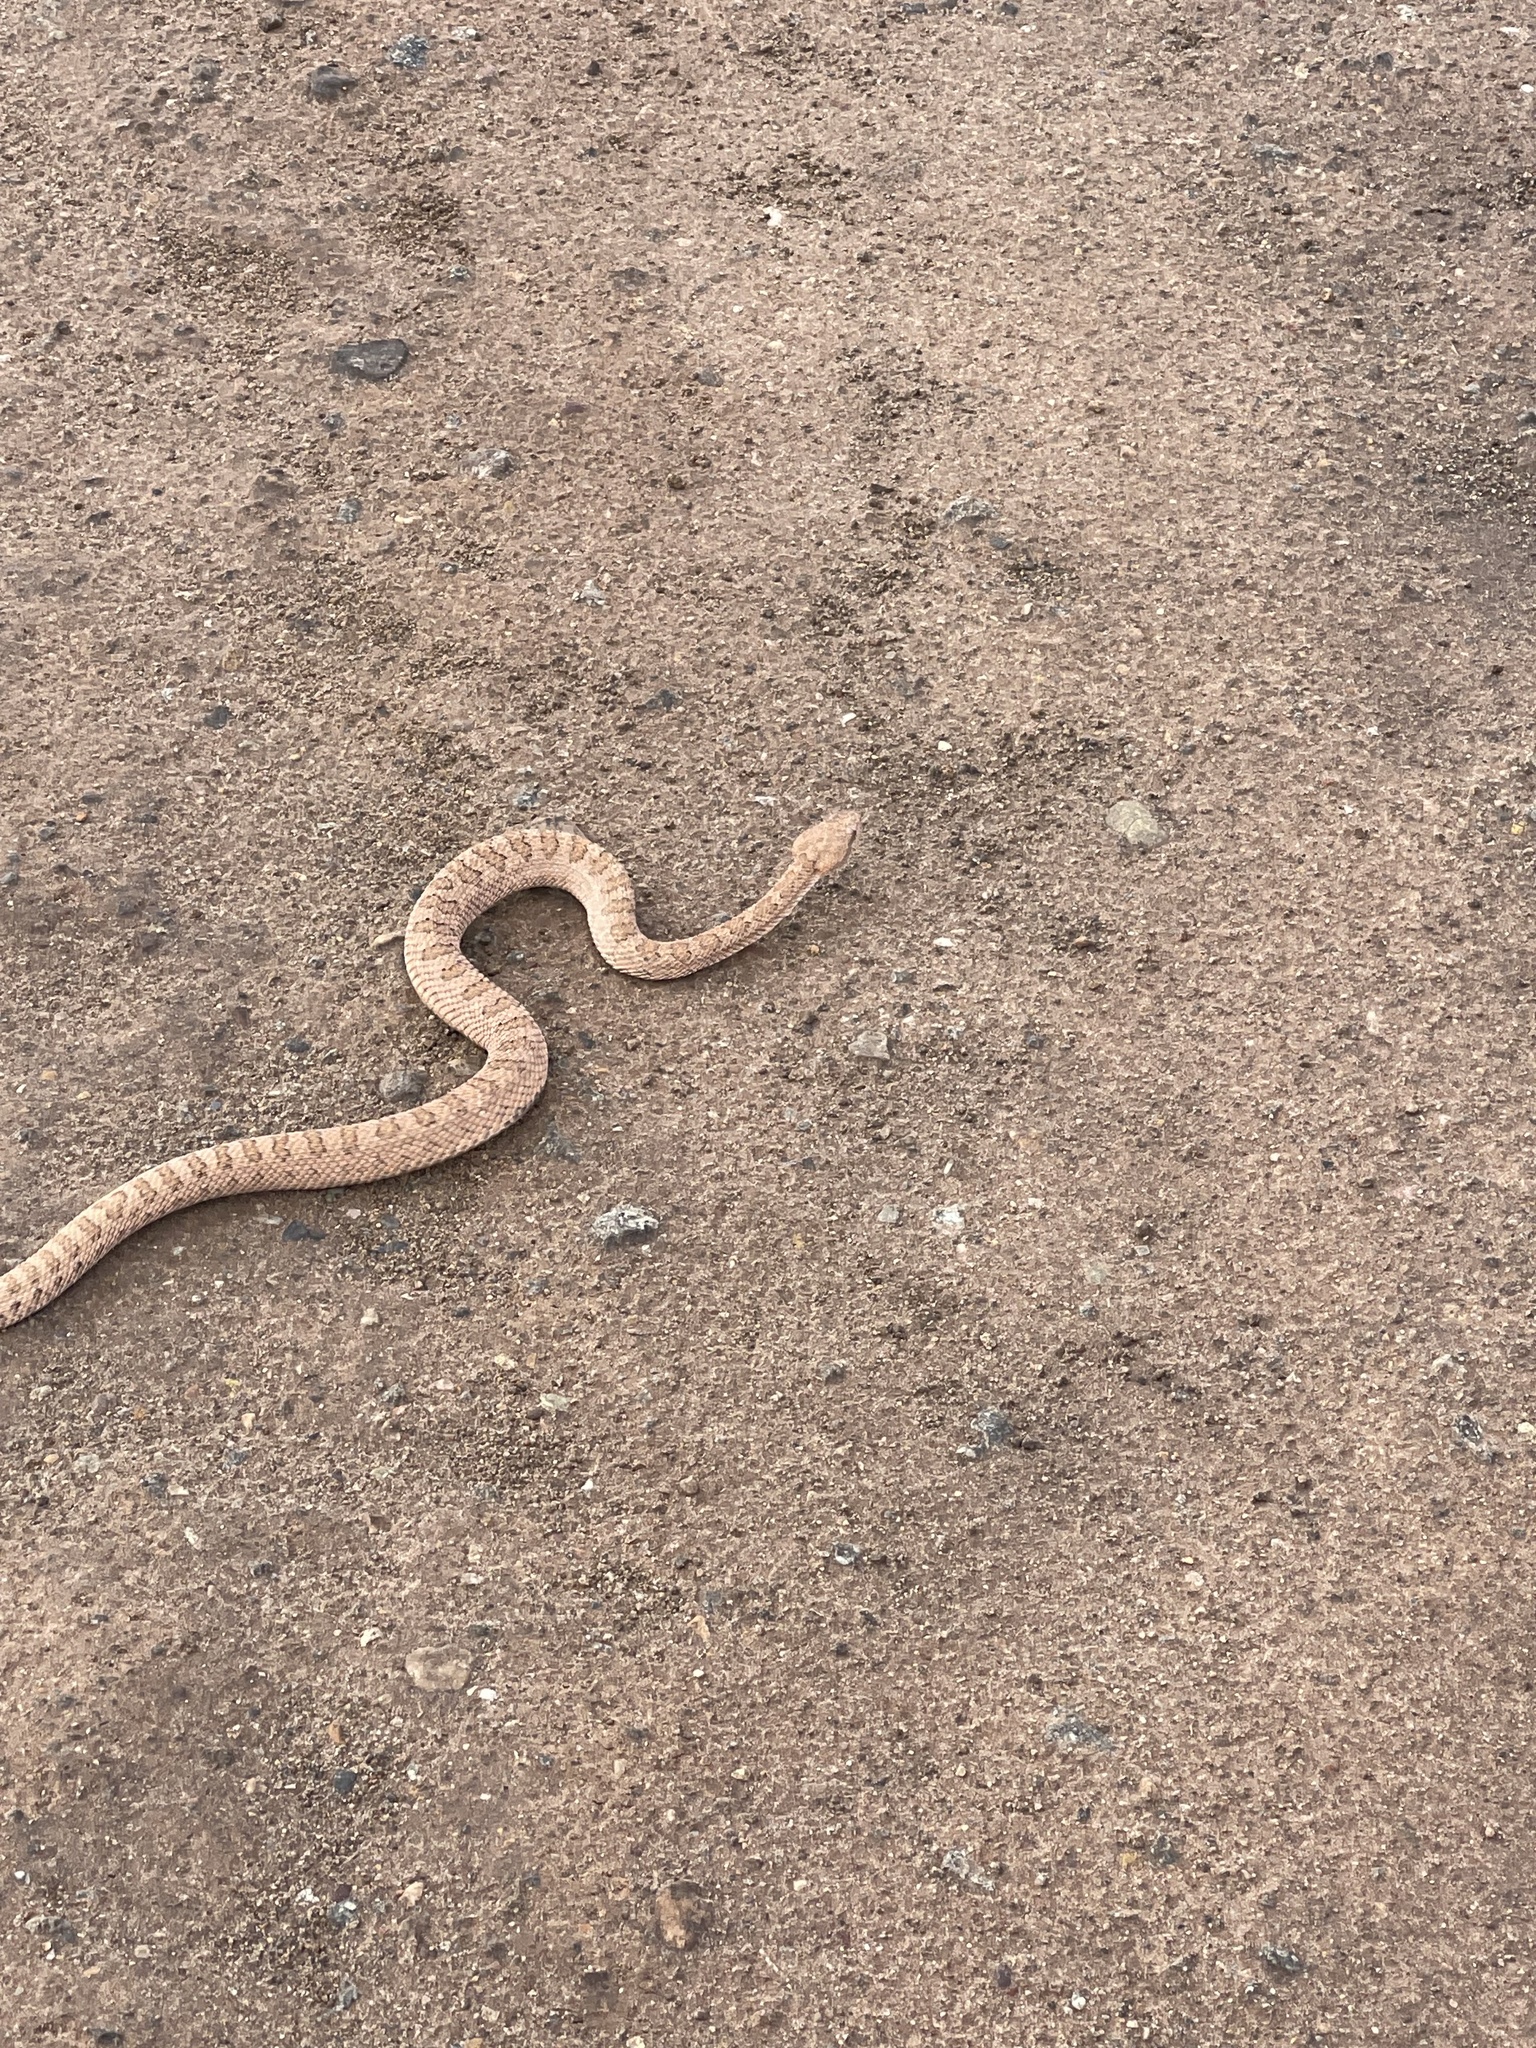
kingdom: Animalia
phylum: Chordata
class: Squamata
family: Viperidae
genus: Crotalus
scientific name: Crotalus oreganus
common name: Abyssus
